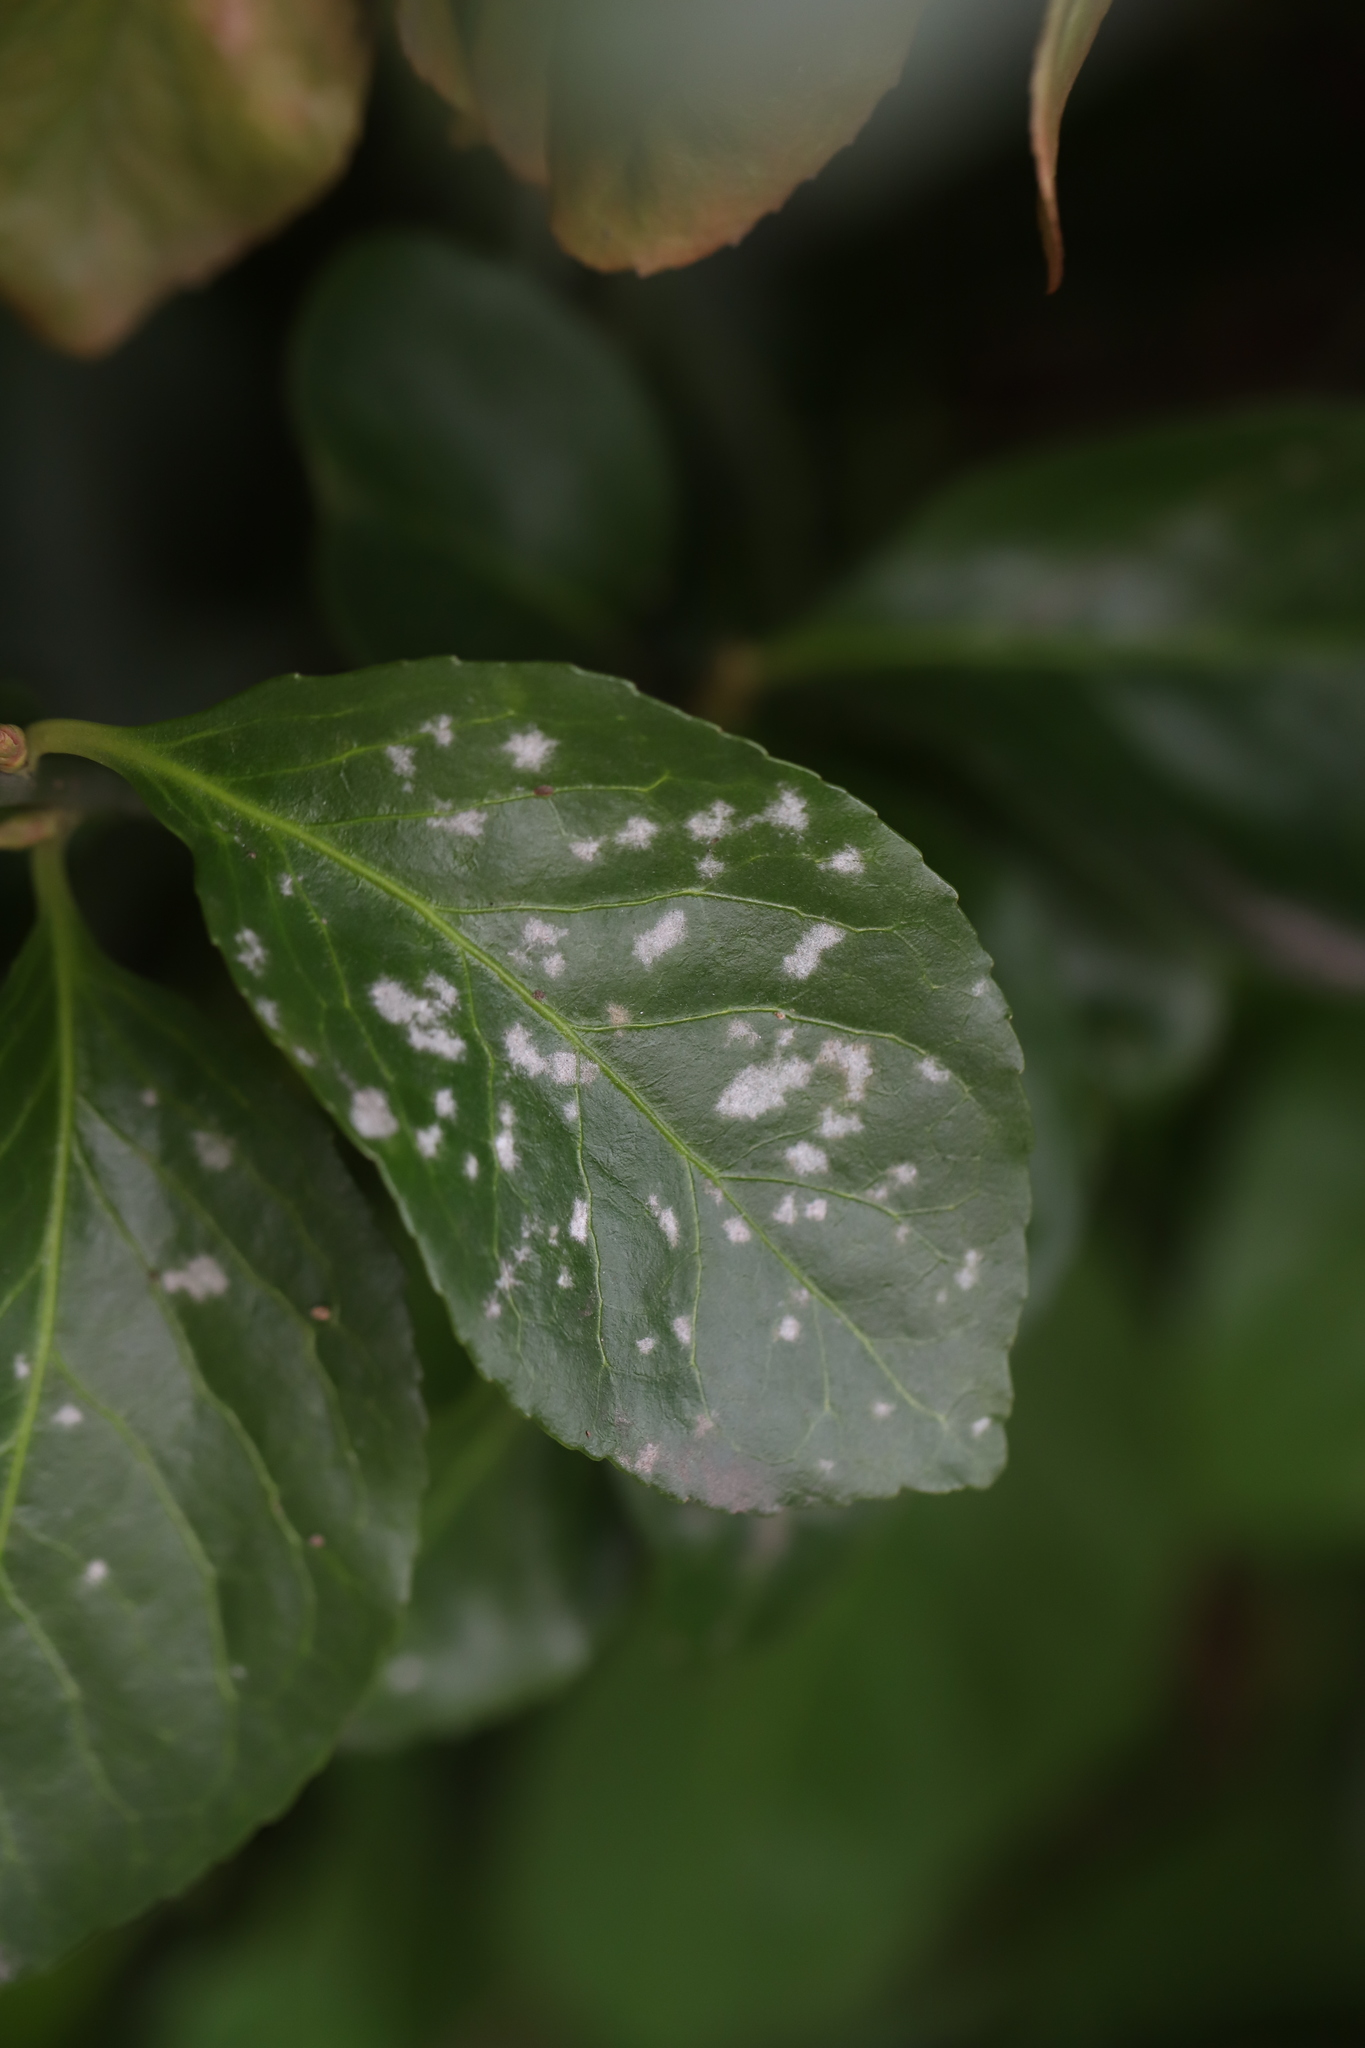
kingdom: Fungi
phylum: Ascomycota
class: Leotiomycetes
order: Helotiales
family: Erysiphaceae
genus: Erysiphe
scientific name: Erysiphe euonymicola
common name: Spindletree mildew
